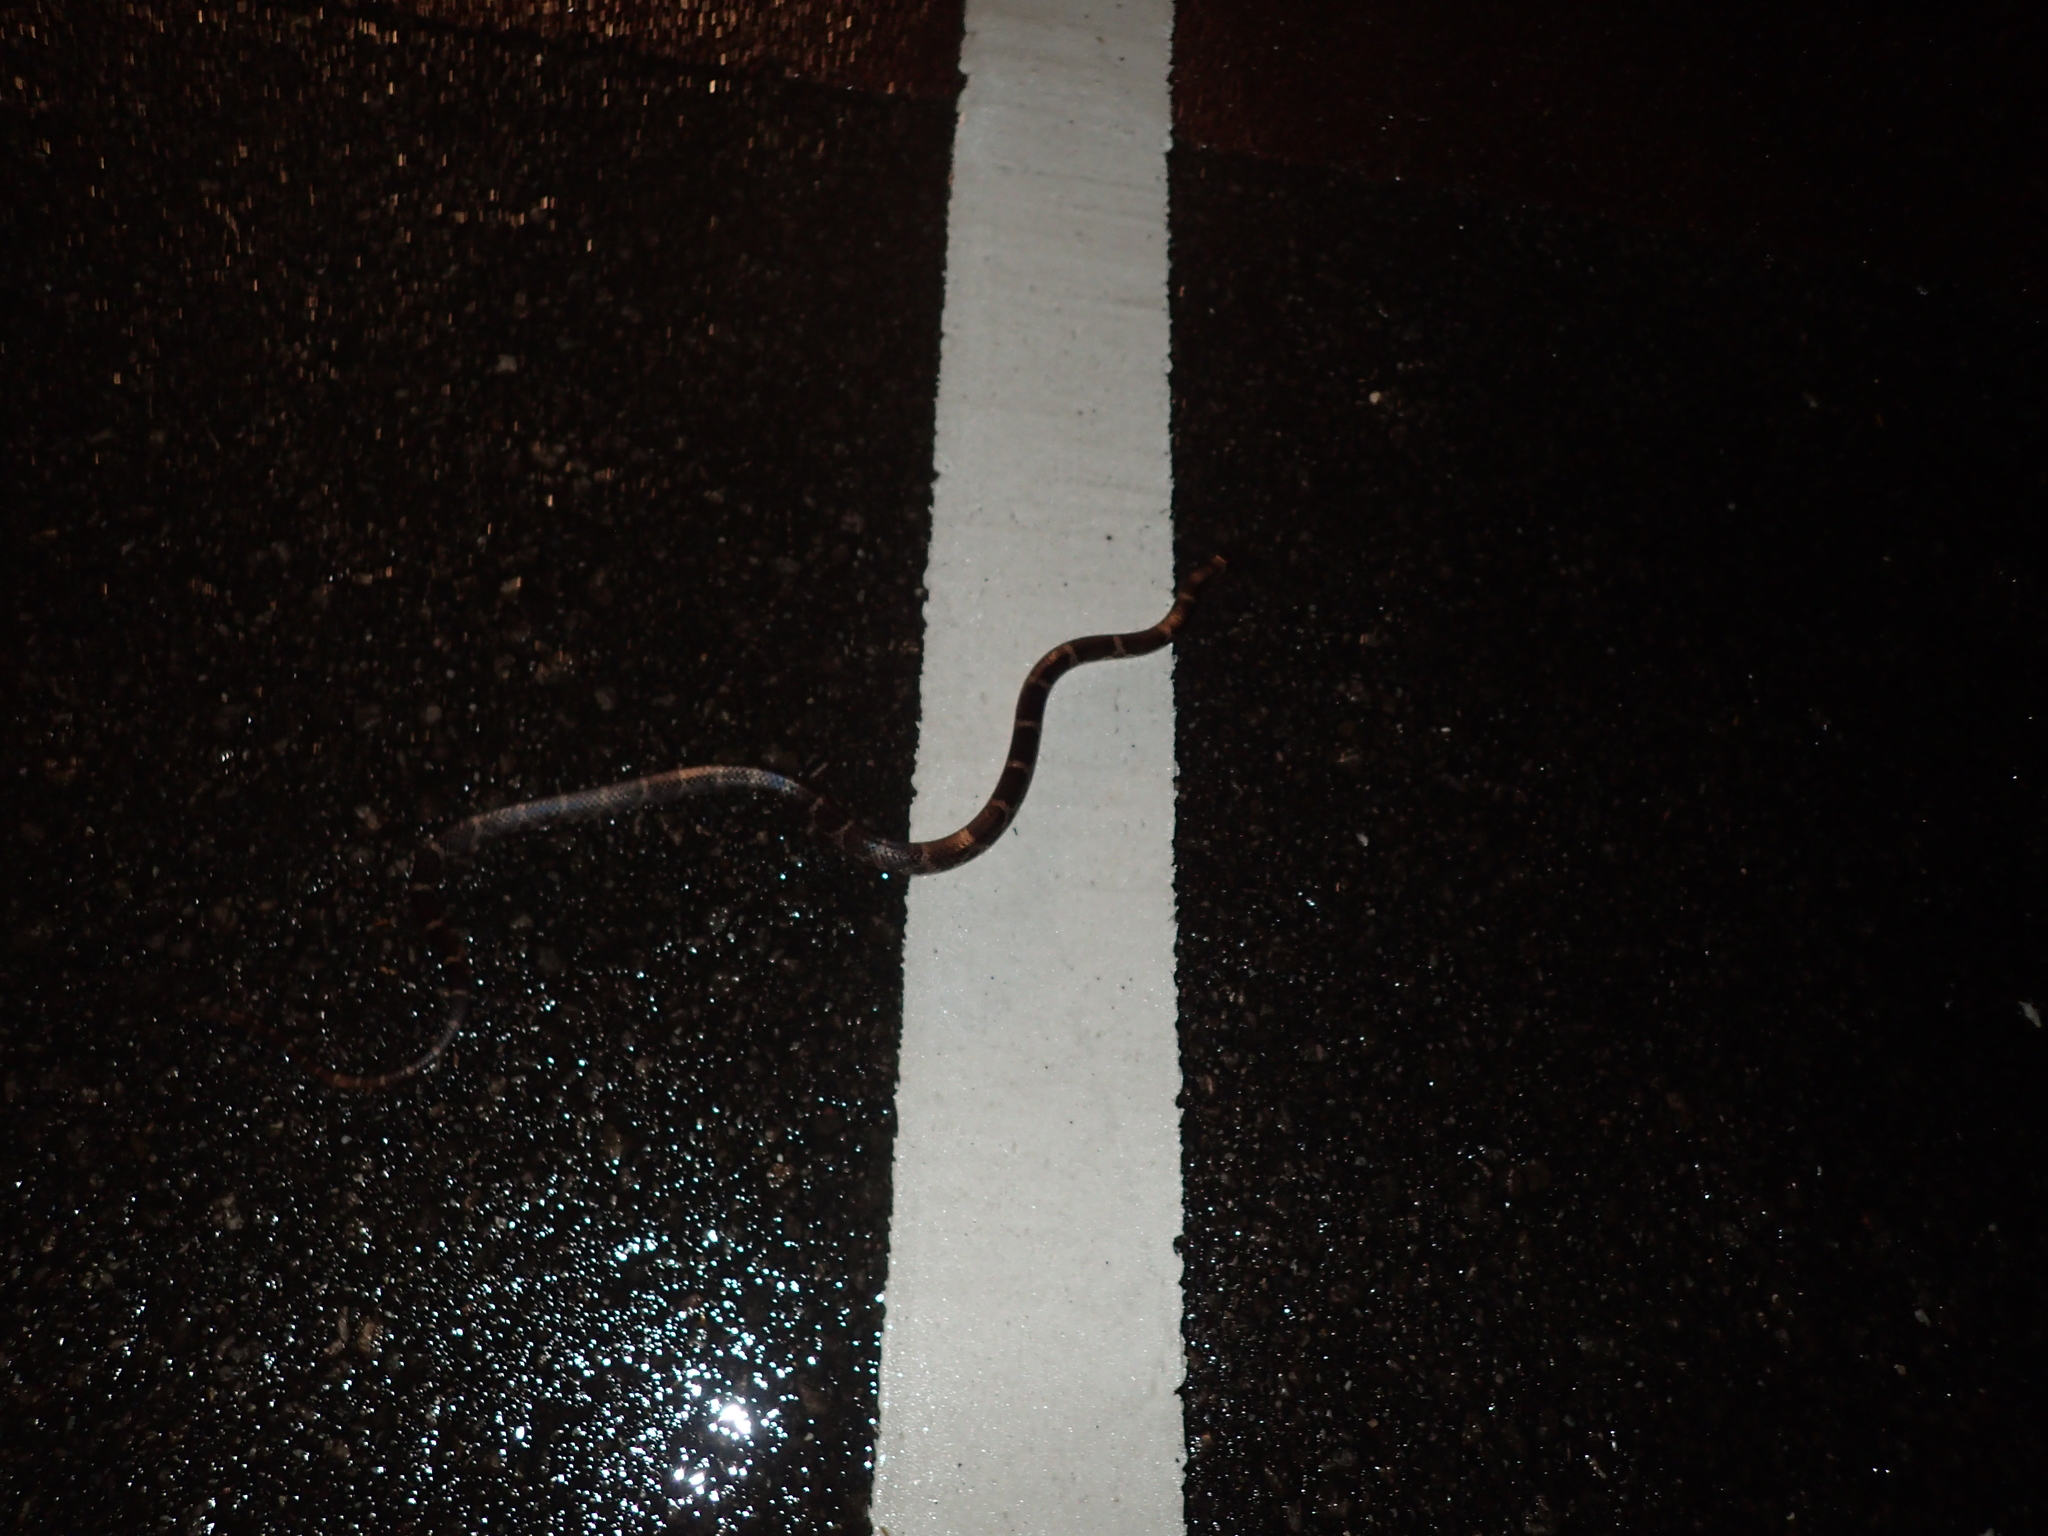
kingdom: Animalia
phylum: Chordata
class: Squamata
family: Colubridae
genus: Lycodon
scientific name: Lycodon rufozonatus
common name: Red-banded snake
